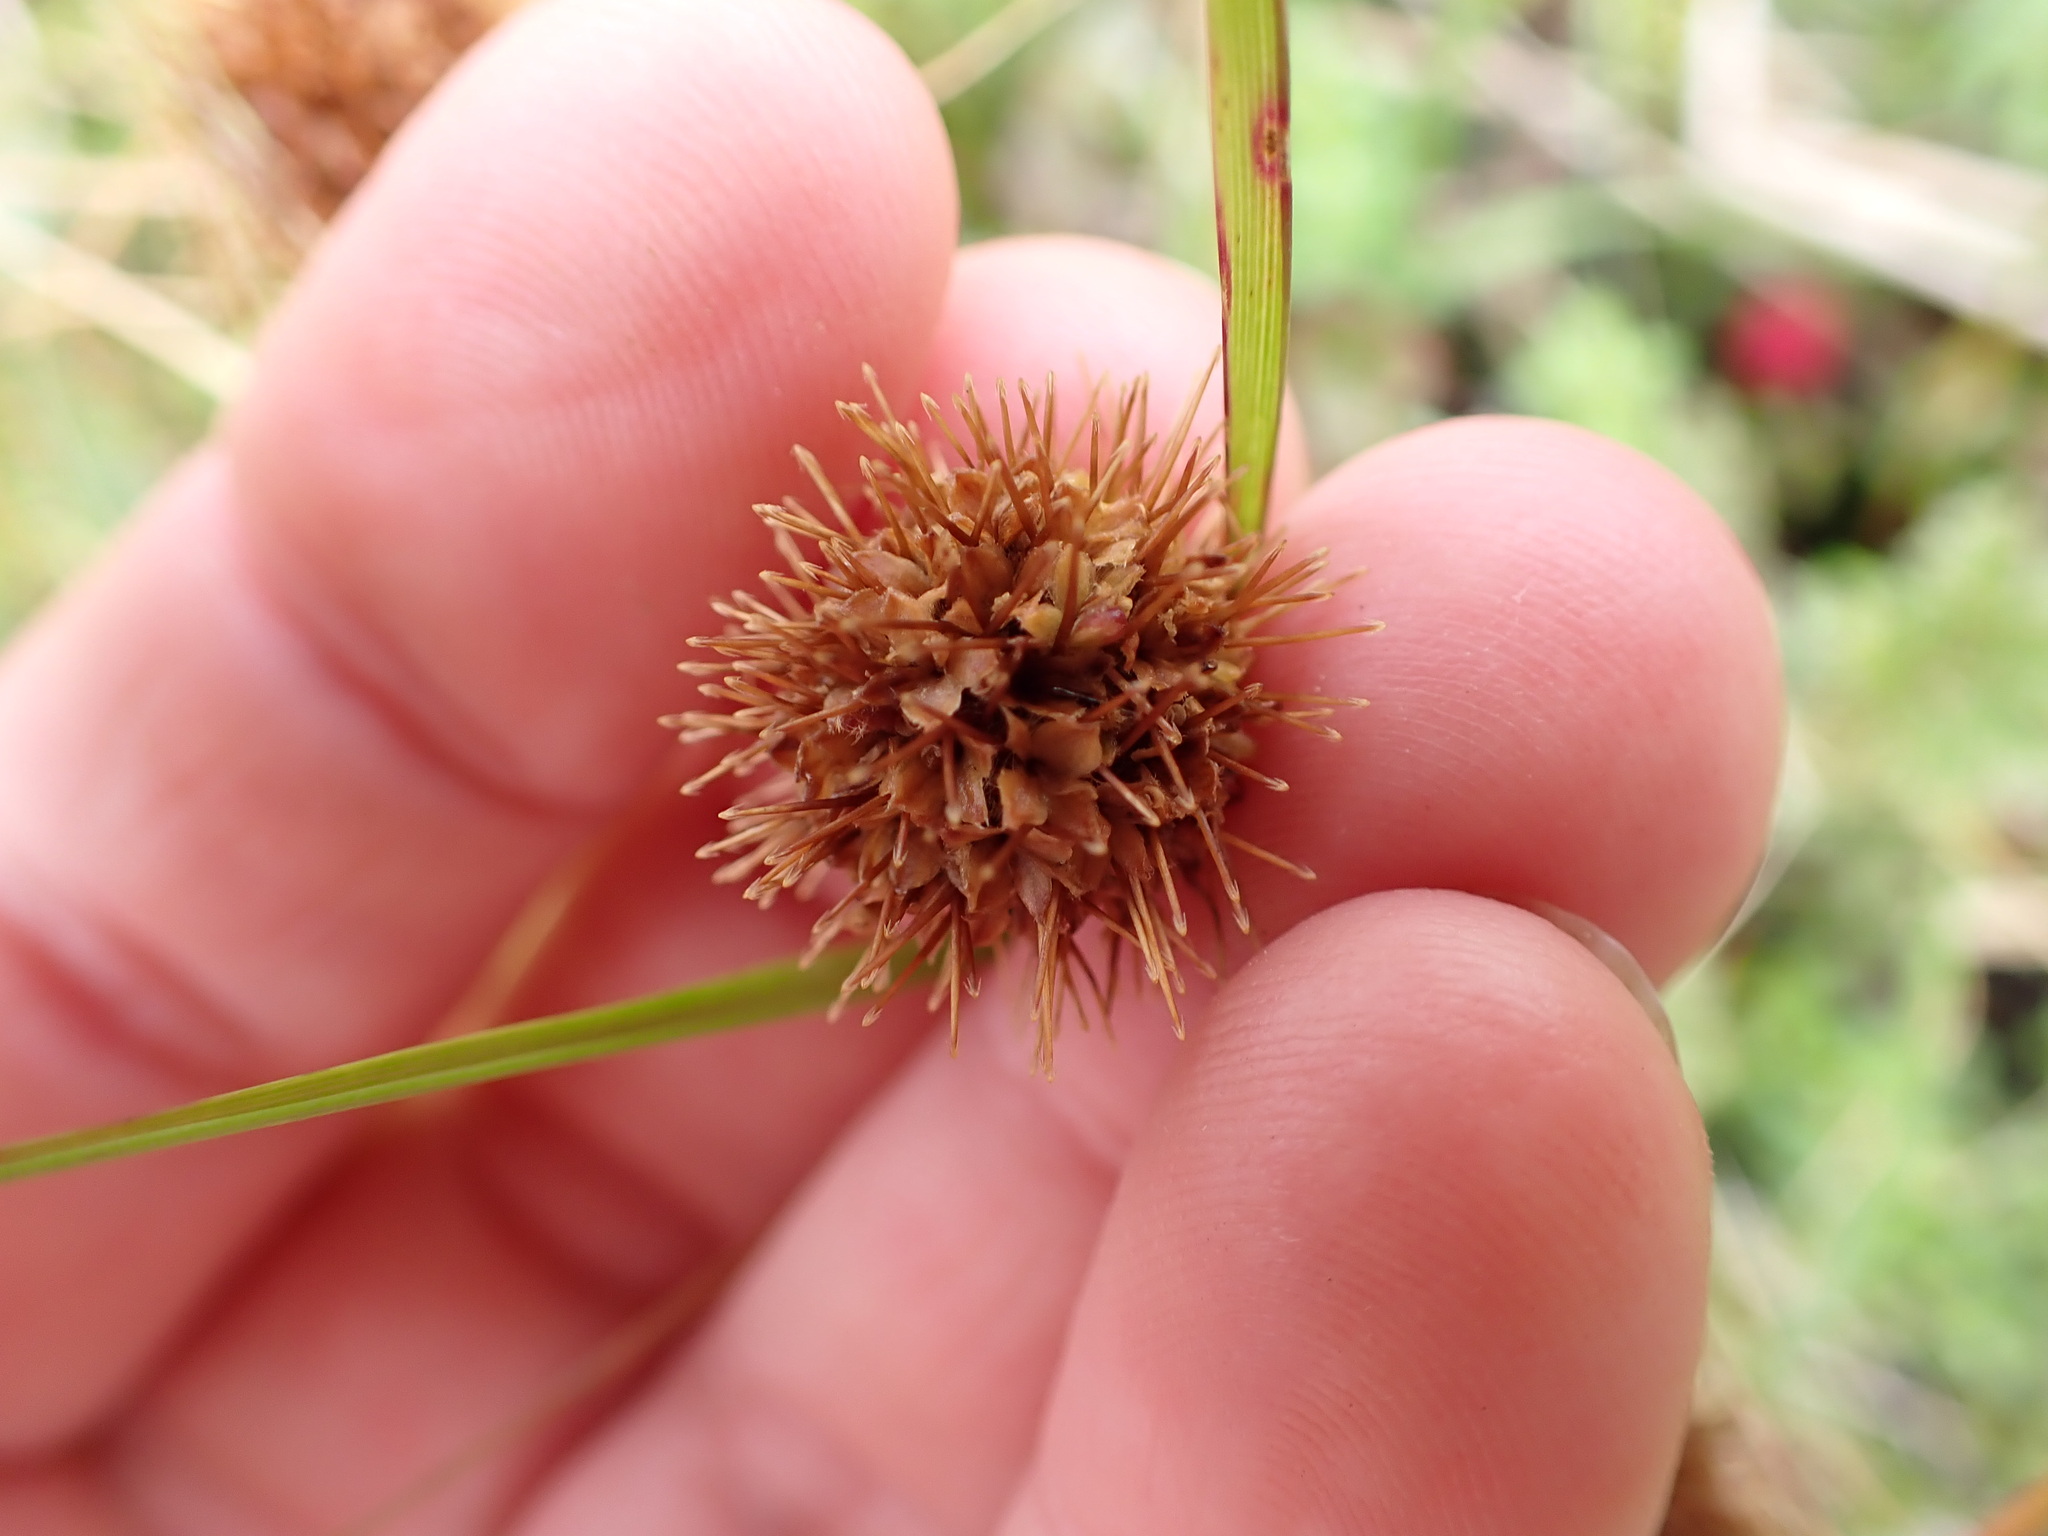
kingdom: Plantae
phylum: Tracheophyta
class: Magnoliopsida
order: Rosales
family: Rosaceae
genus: Acaena
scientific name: Acaena anserinifolia
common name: Bronze pirri-pirri-bur
